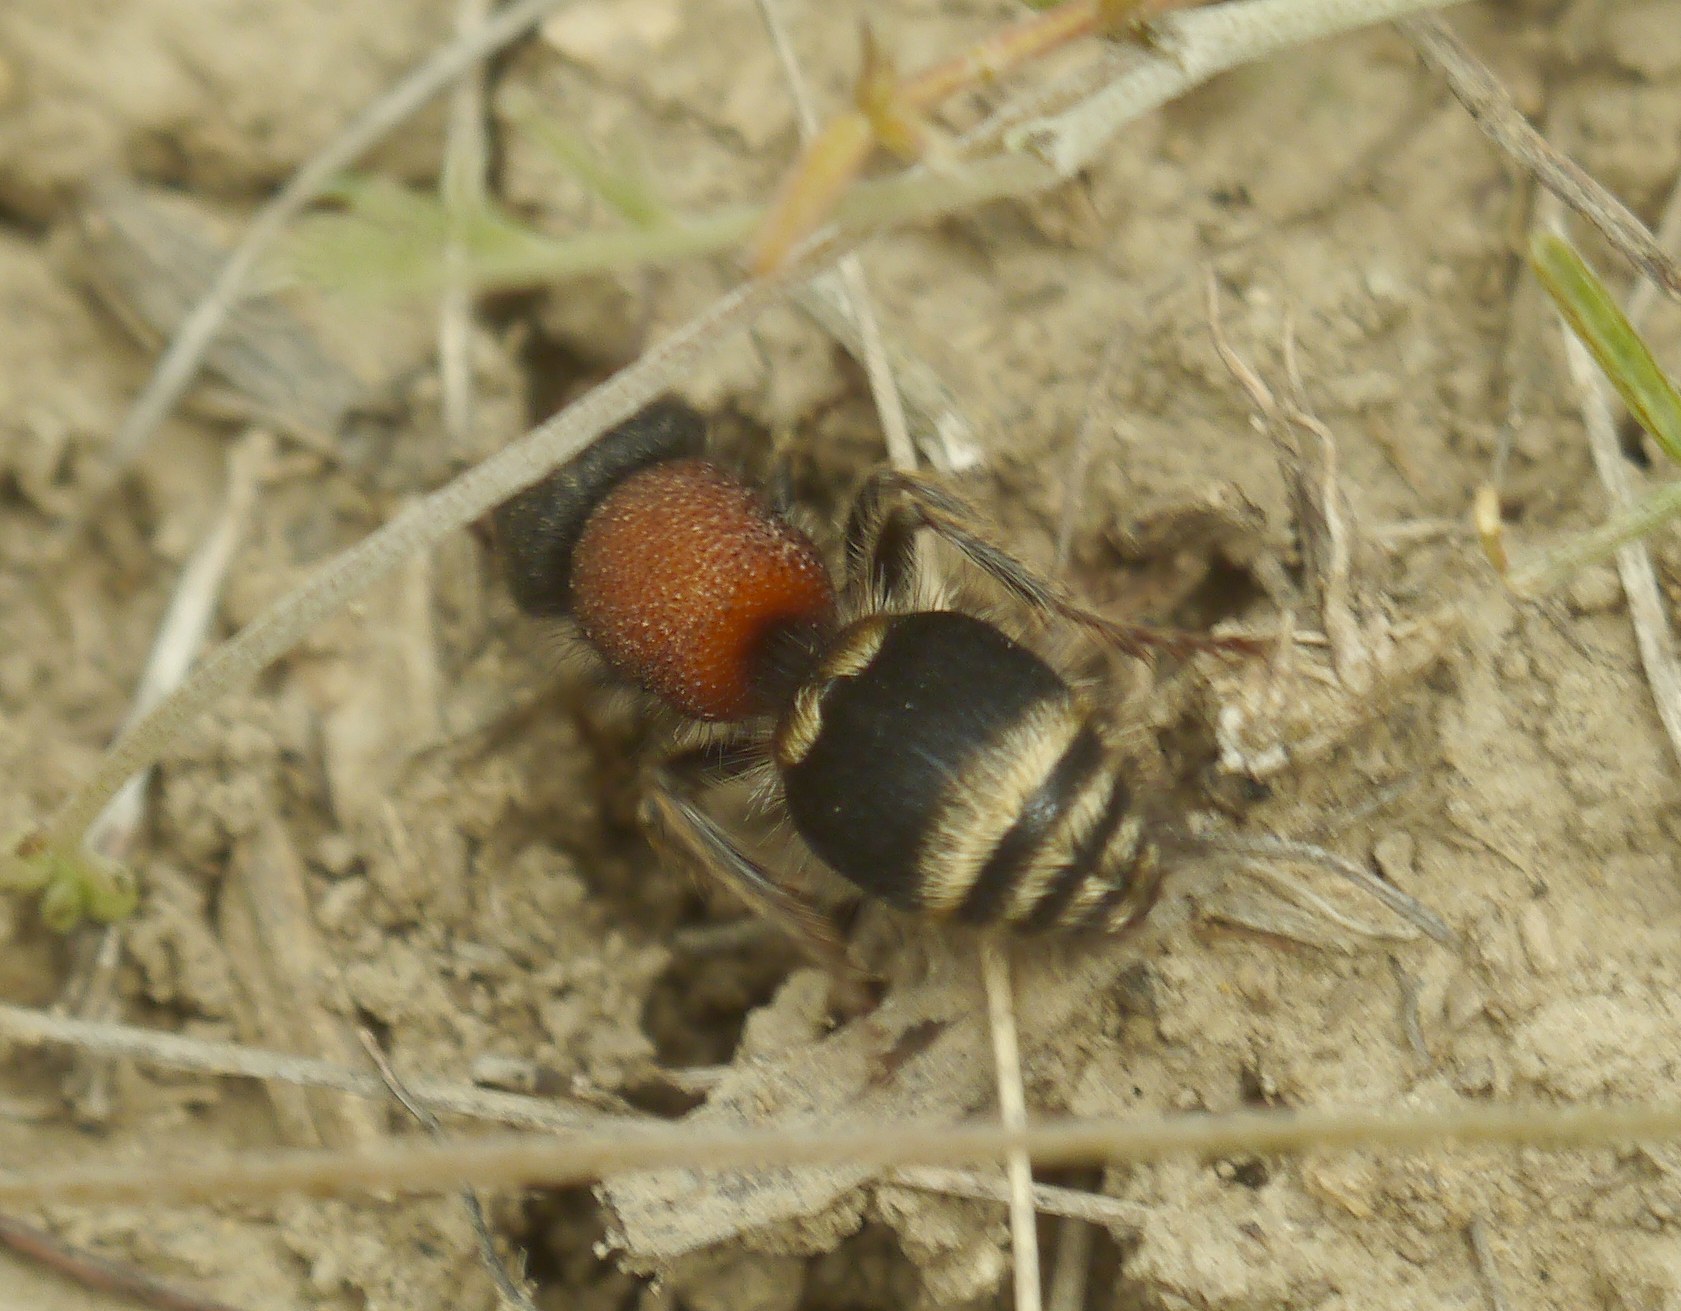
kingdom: Animalia
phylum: Arthropoda
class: Insecta
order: Hymenoptera
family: Mutillidae
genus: Tropidotilla
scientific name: Tropidotilla litoralis
